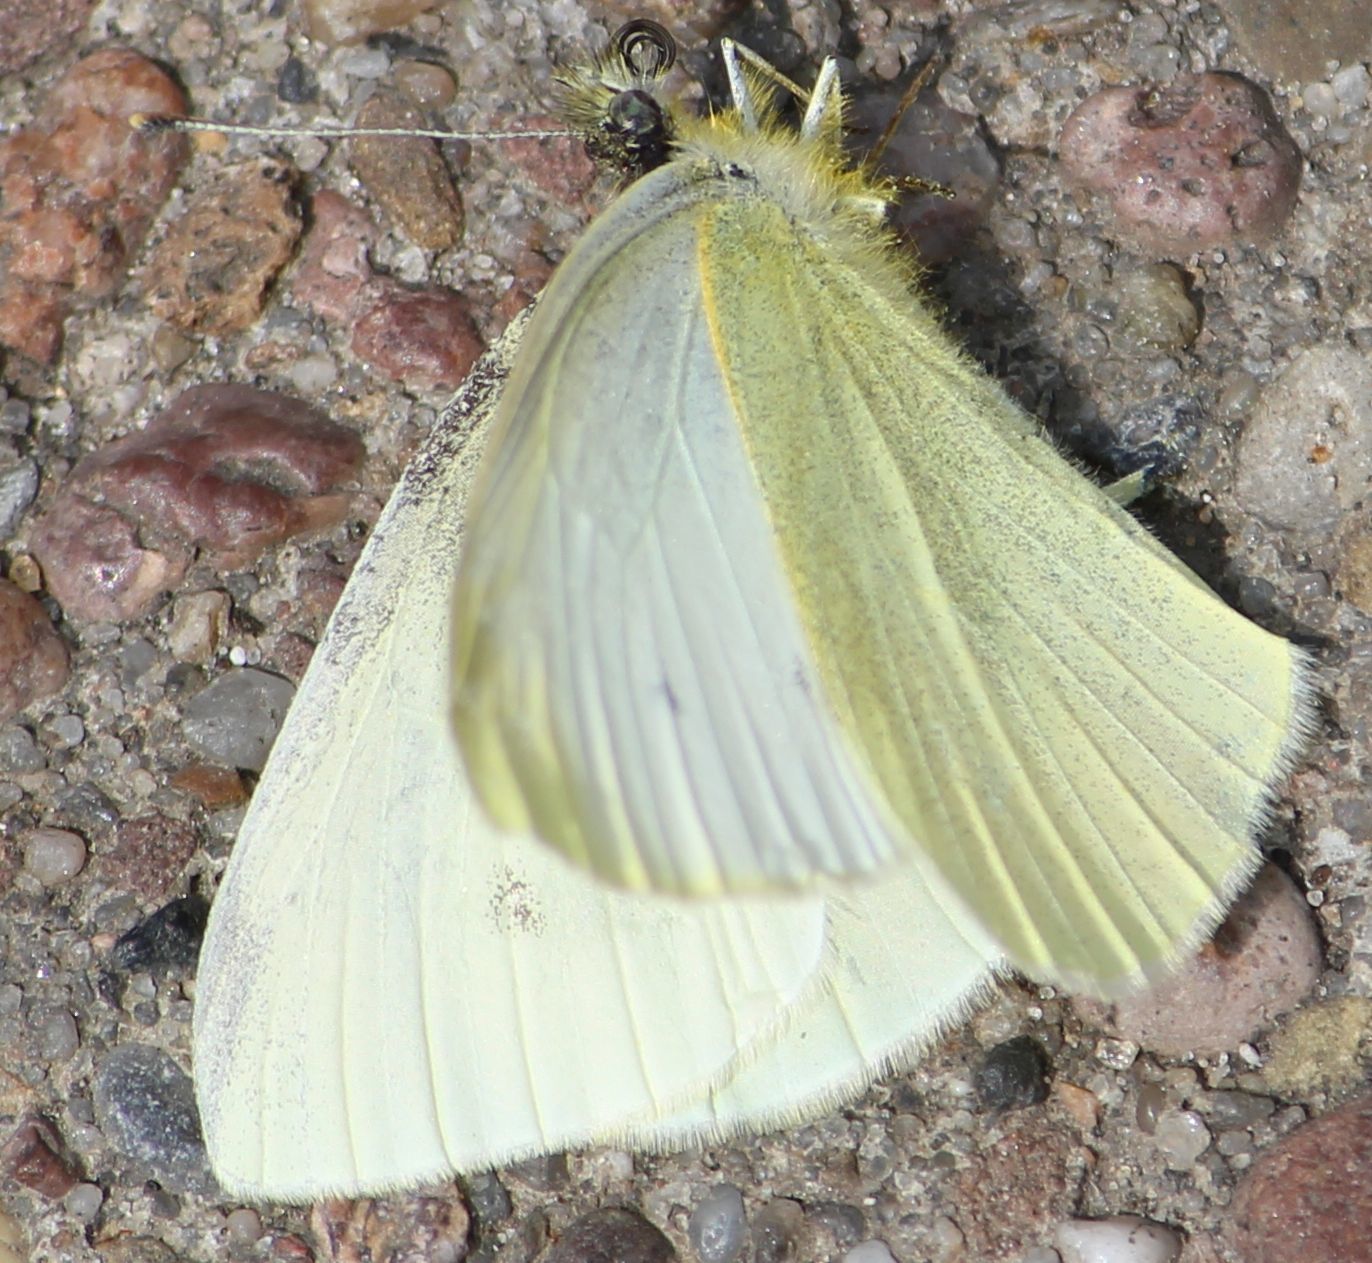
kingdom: Animalia
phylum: Arthropoda
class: Insecta
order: Lepidoptera
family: Pieridae
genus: Pieris
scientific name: Pieris rapae
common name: Small white
